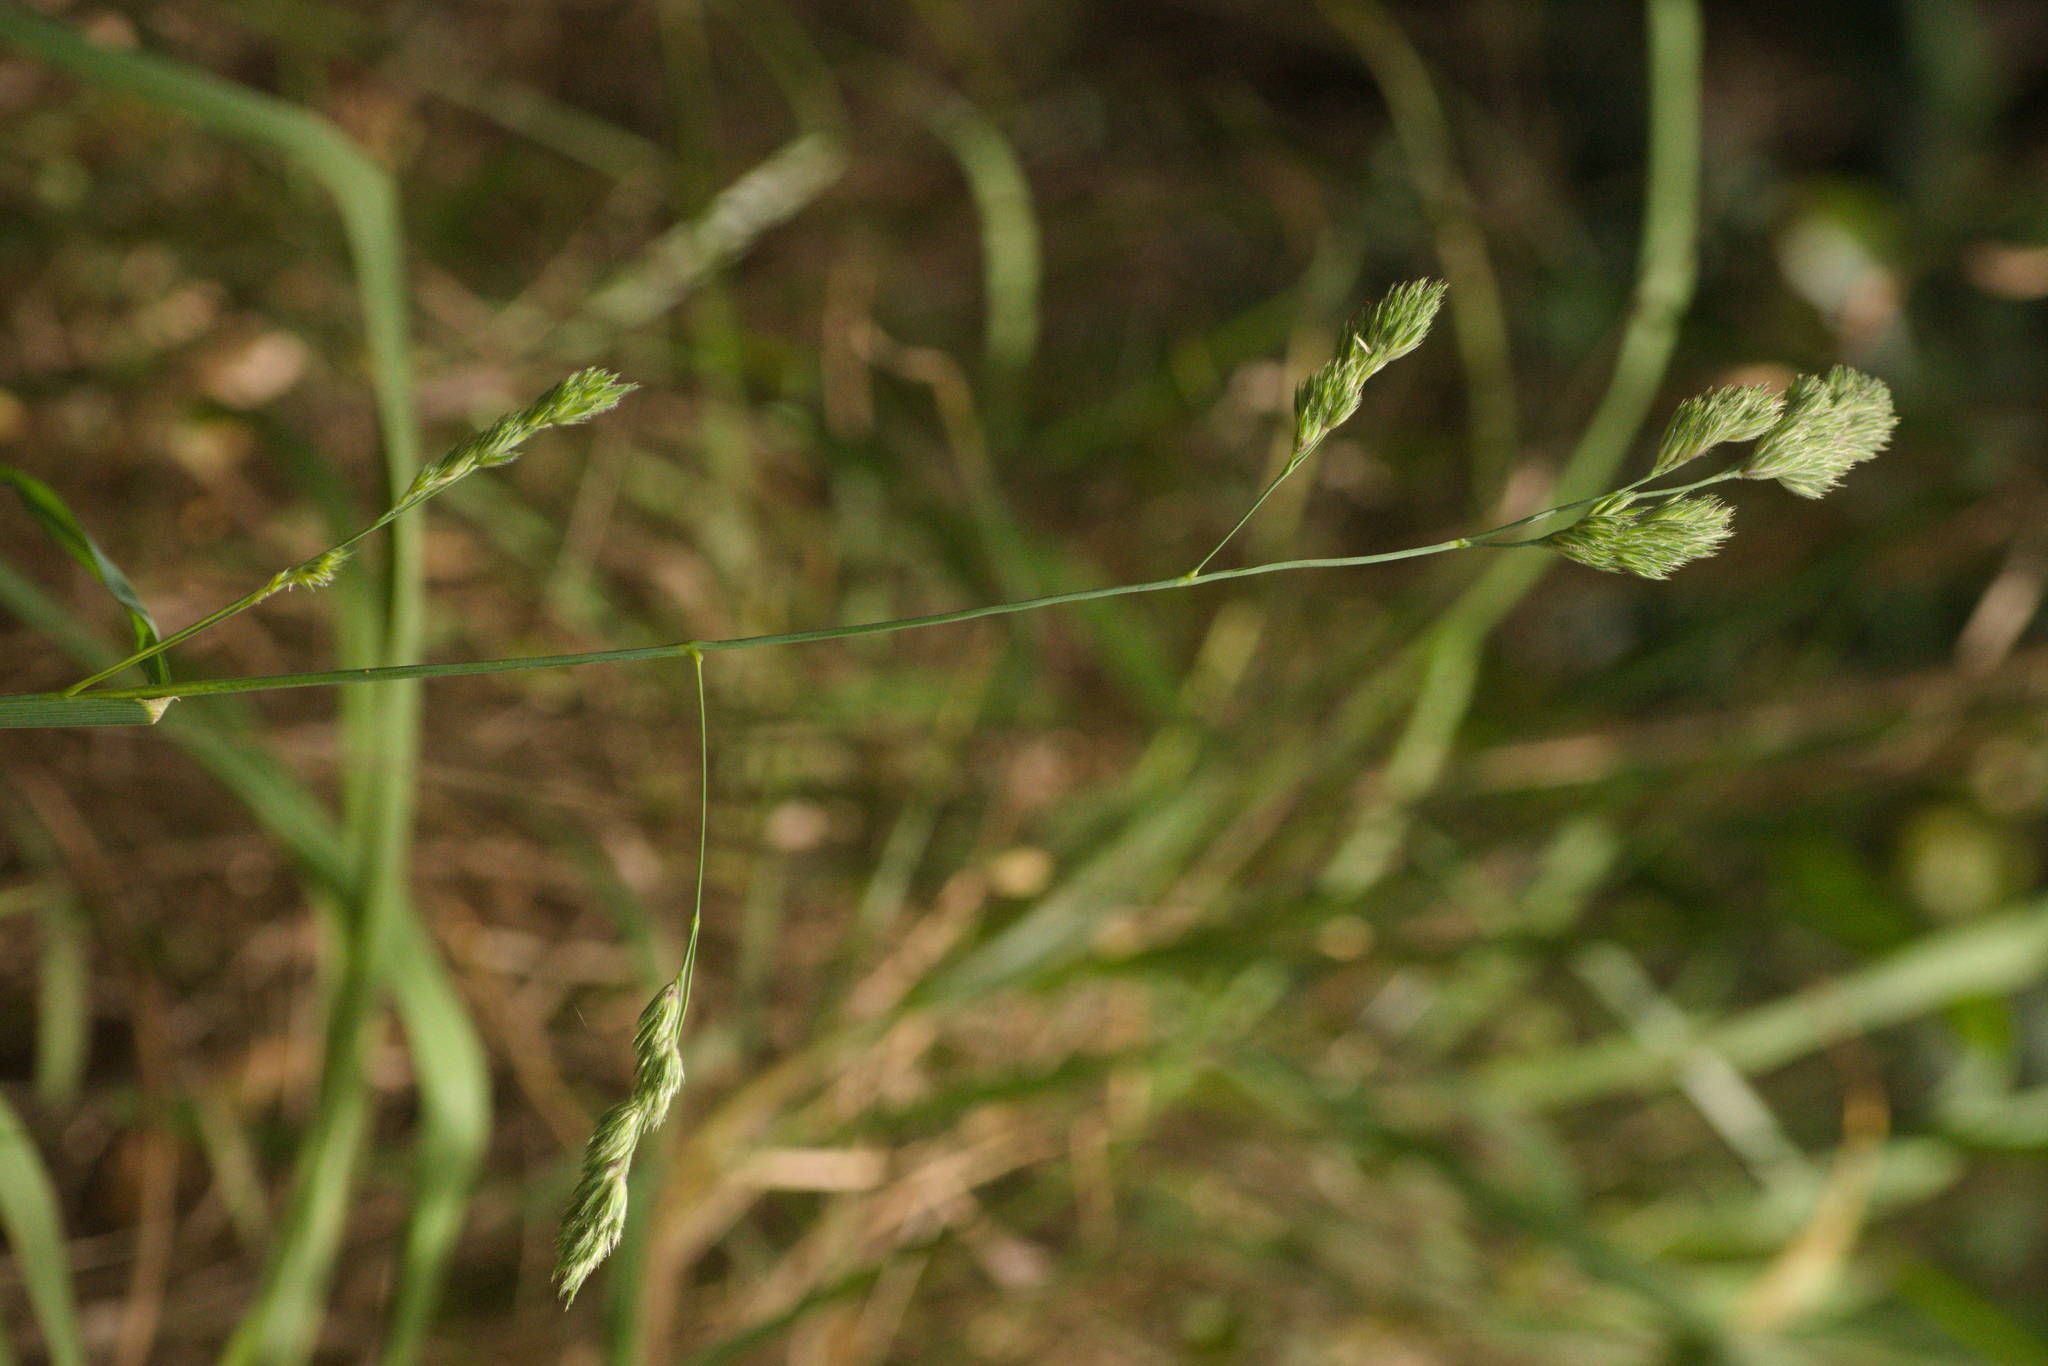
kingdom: Plantae
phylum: Tracheophyta
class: Liliopsida
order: Poales
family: Poaceae
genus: Dactylis
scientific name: Dactylis glomerata
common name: Orchardgrass
